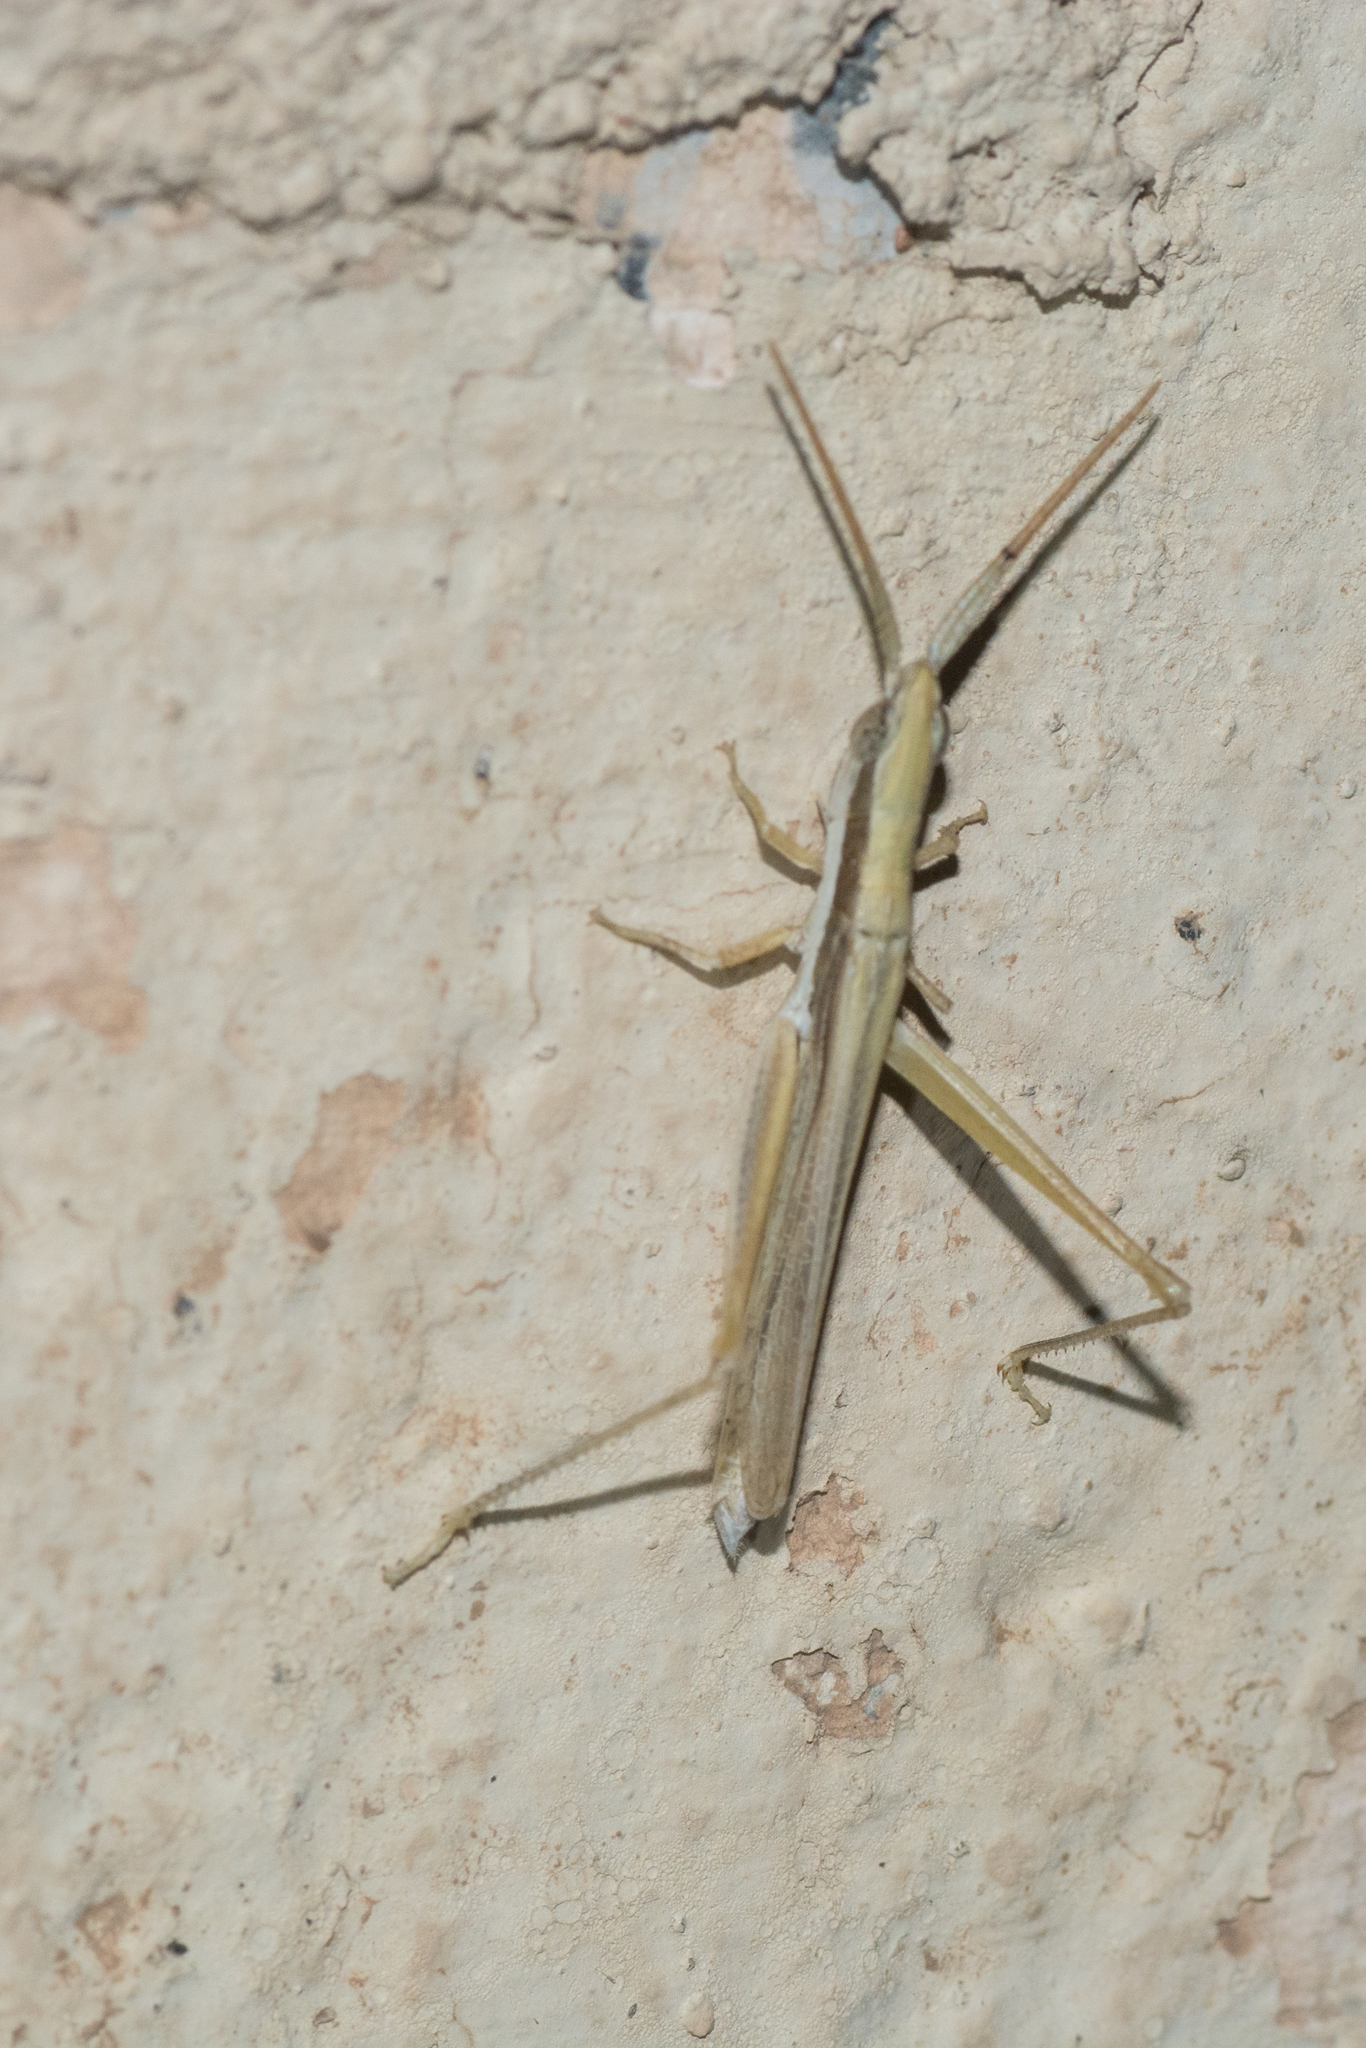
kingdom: Animalia
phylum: Arthropoda
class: Insecta
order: Orthoptera
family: Acrididae
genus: Paropomala
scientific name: Paropomala pallida
